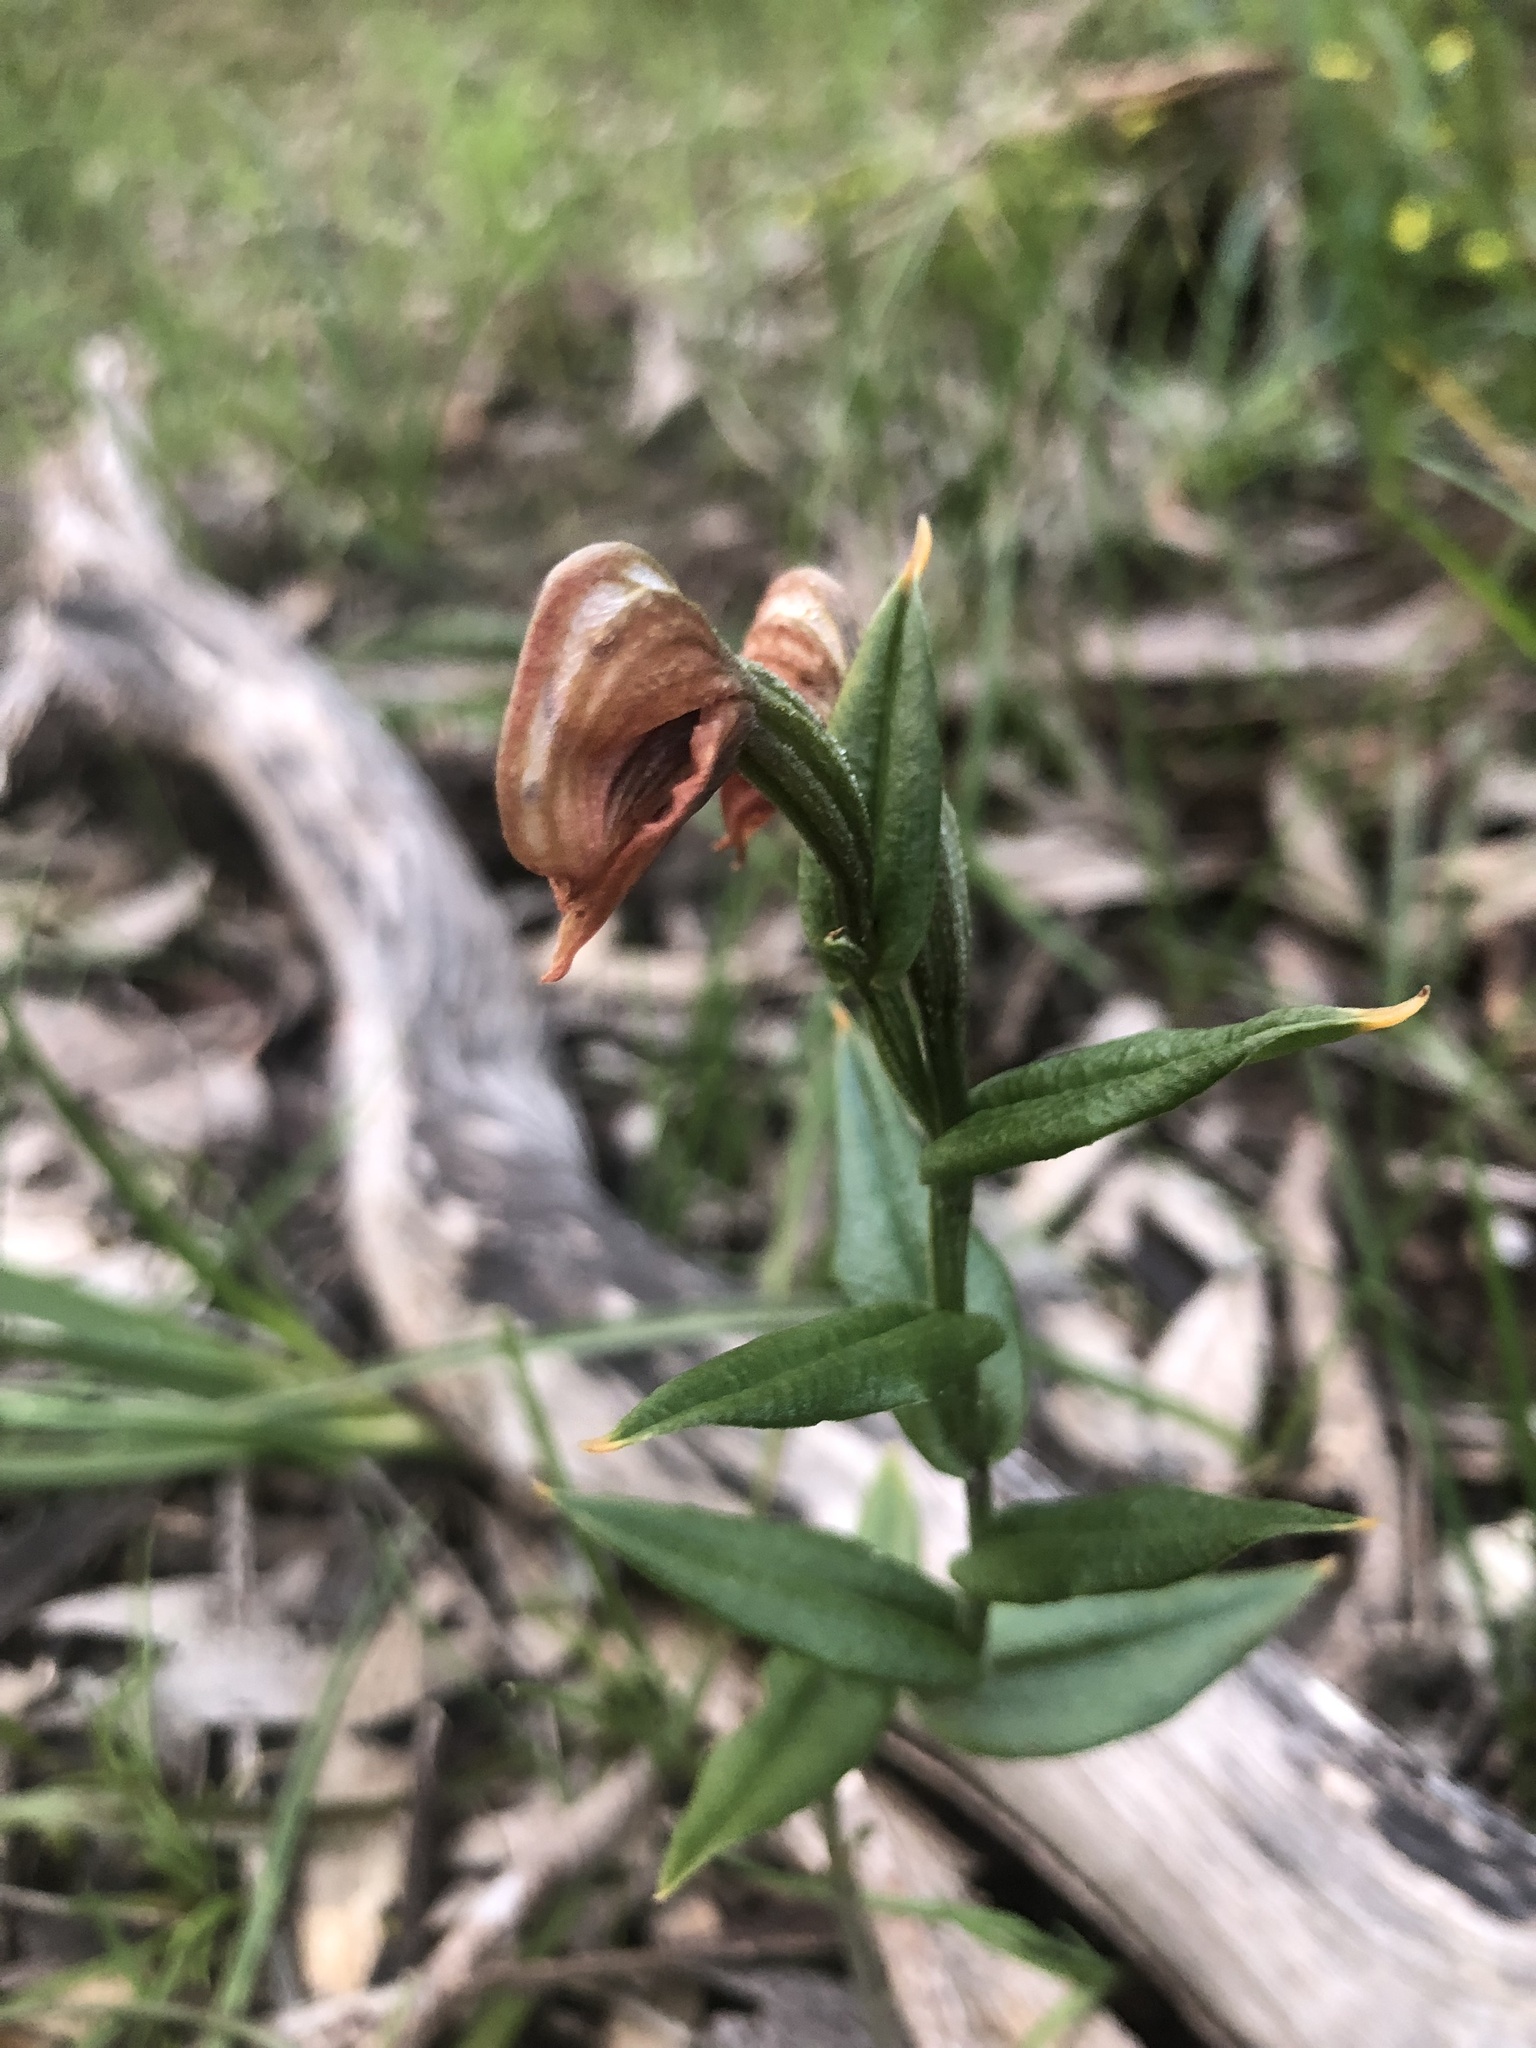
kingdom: Plantae
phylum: Tracheophyta
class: Liliopsida
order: Asparagales
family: Orchidaceae
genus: Pterostylis
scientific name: Pterostylis sanguinea
